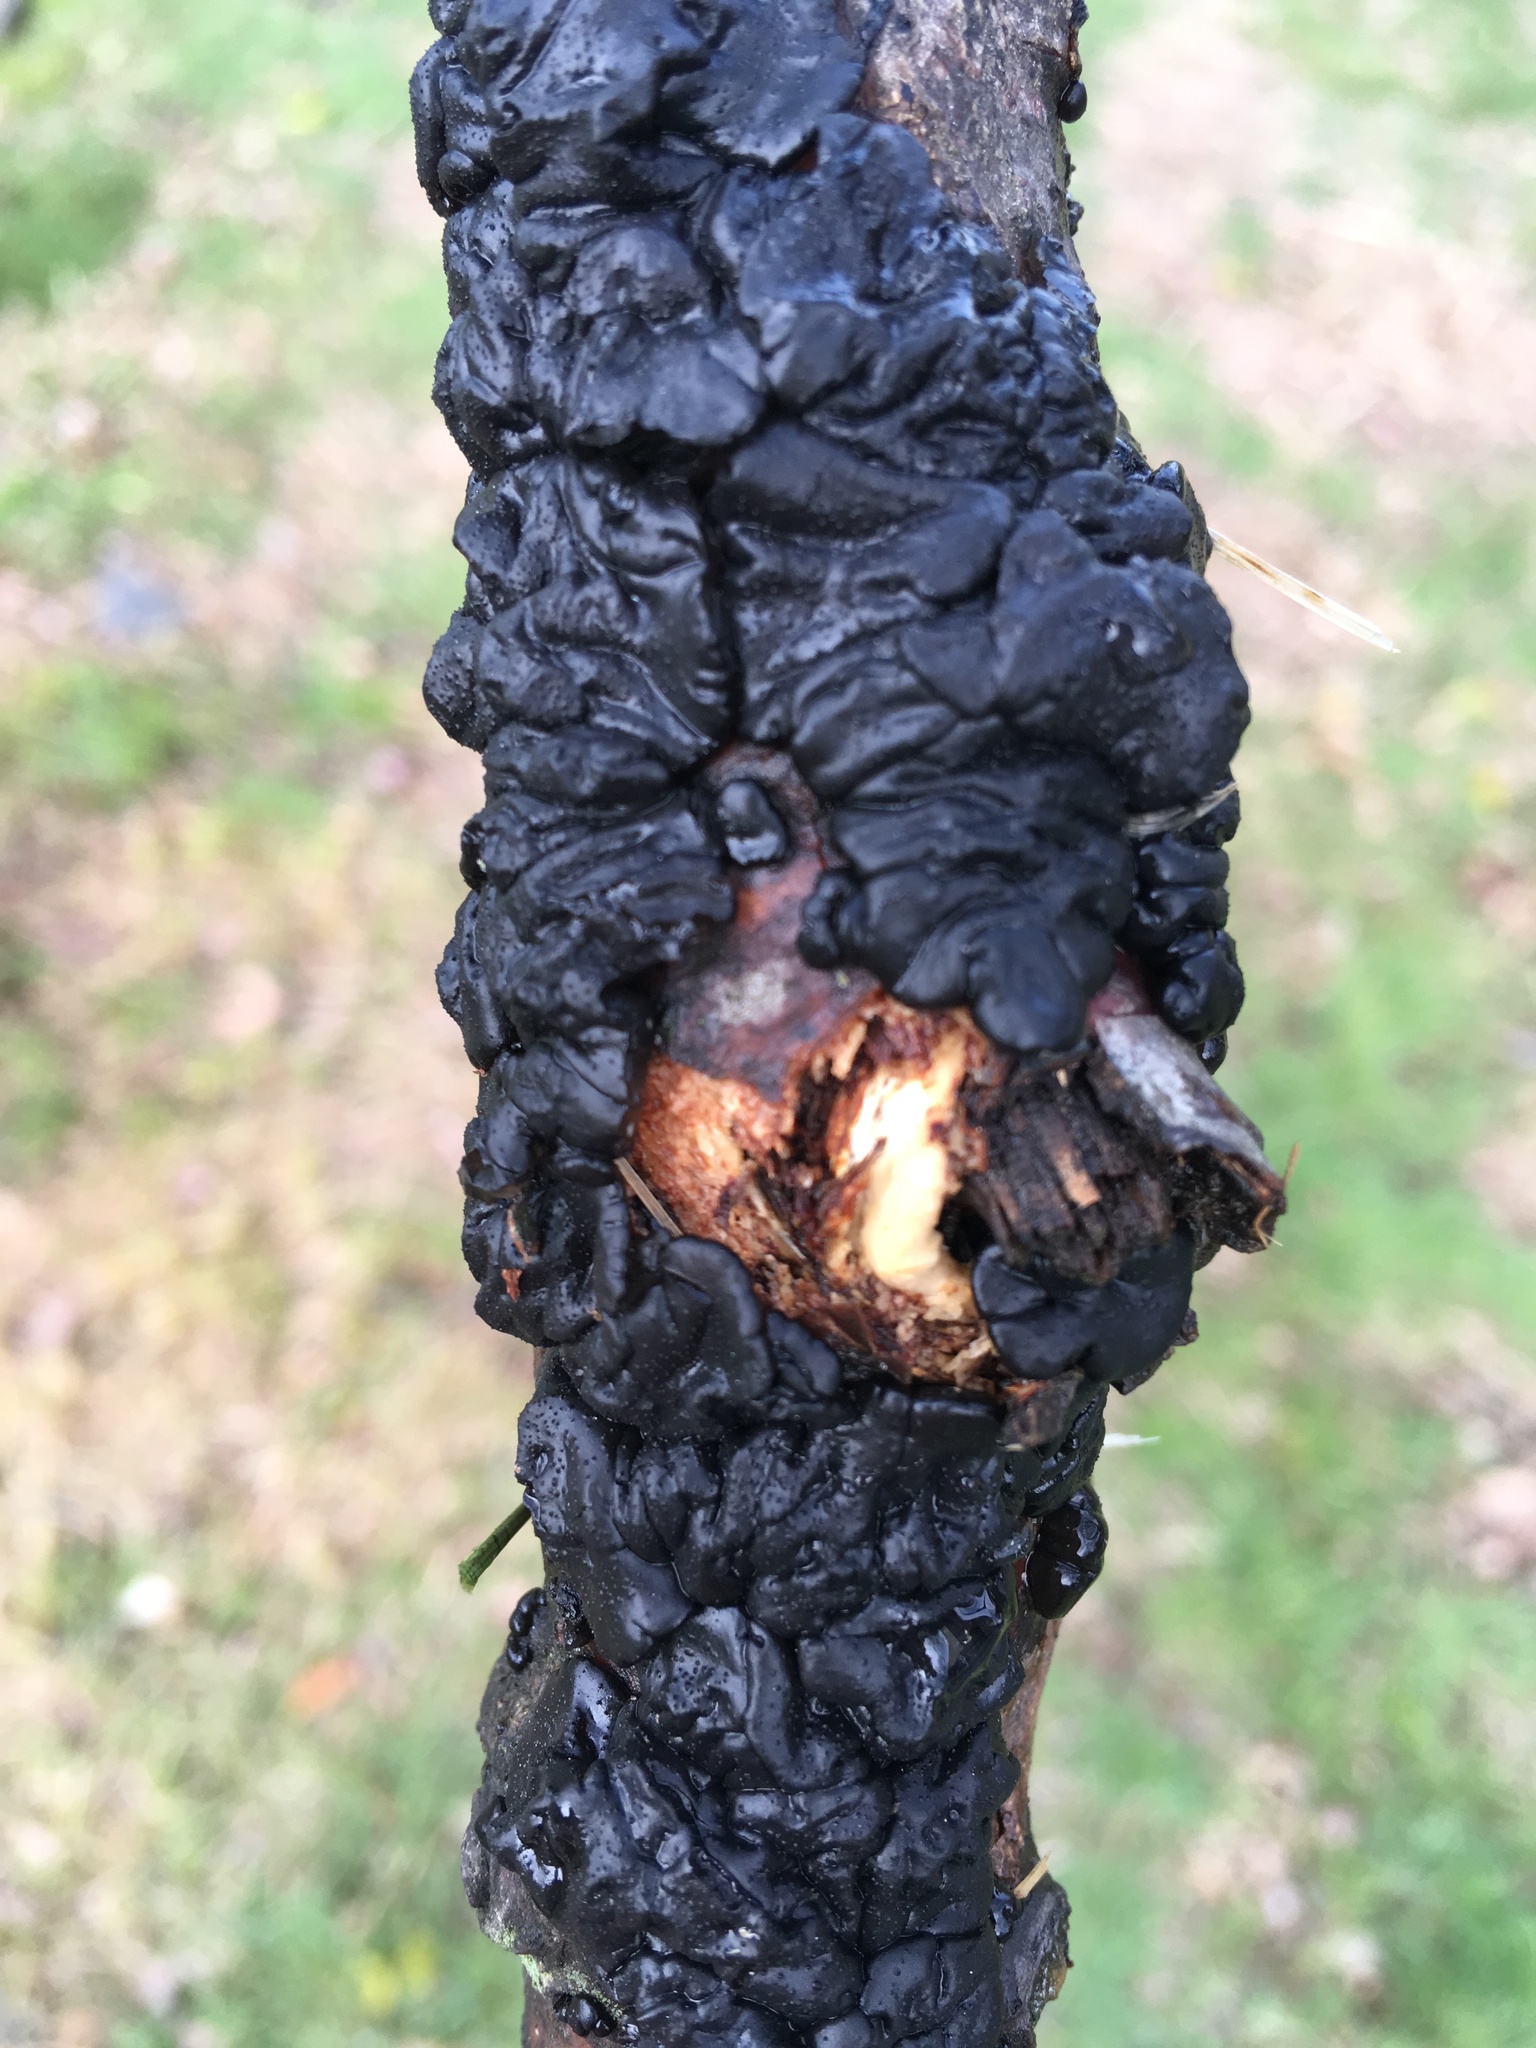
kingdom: Fungi
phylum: Basidiomycota
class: Agaricomycetes
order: Auriculariales
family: Auriculariaceae
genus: Exidia
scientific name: Exidia nigricans
